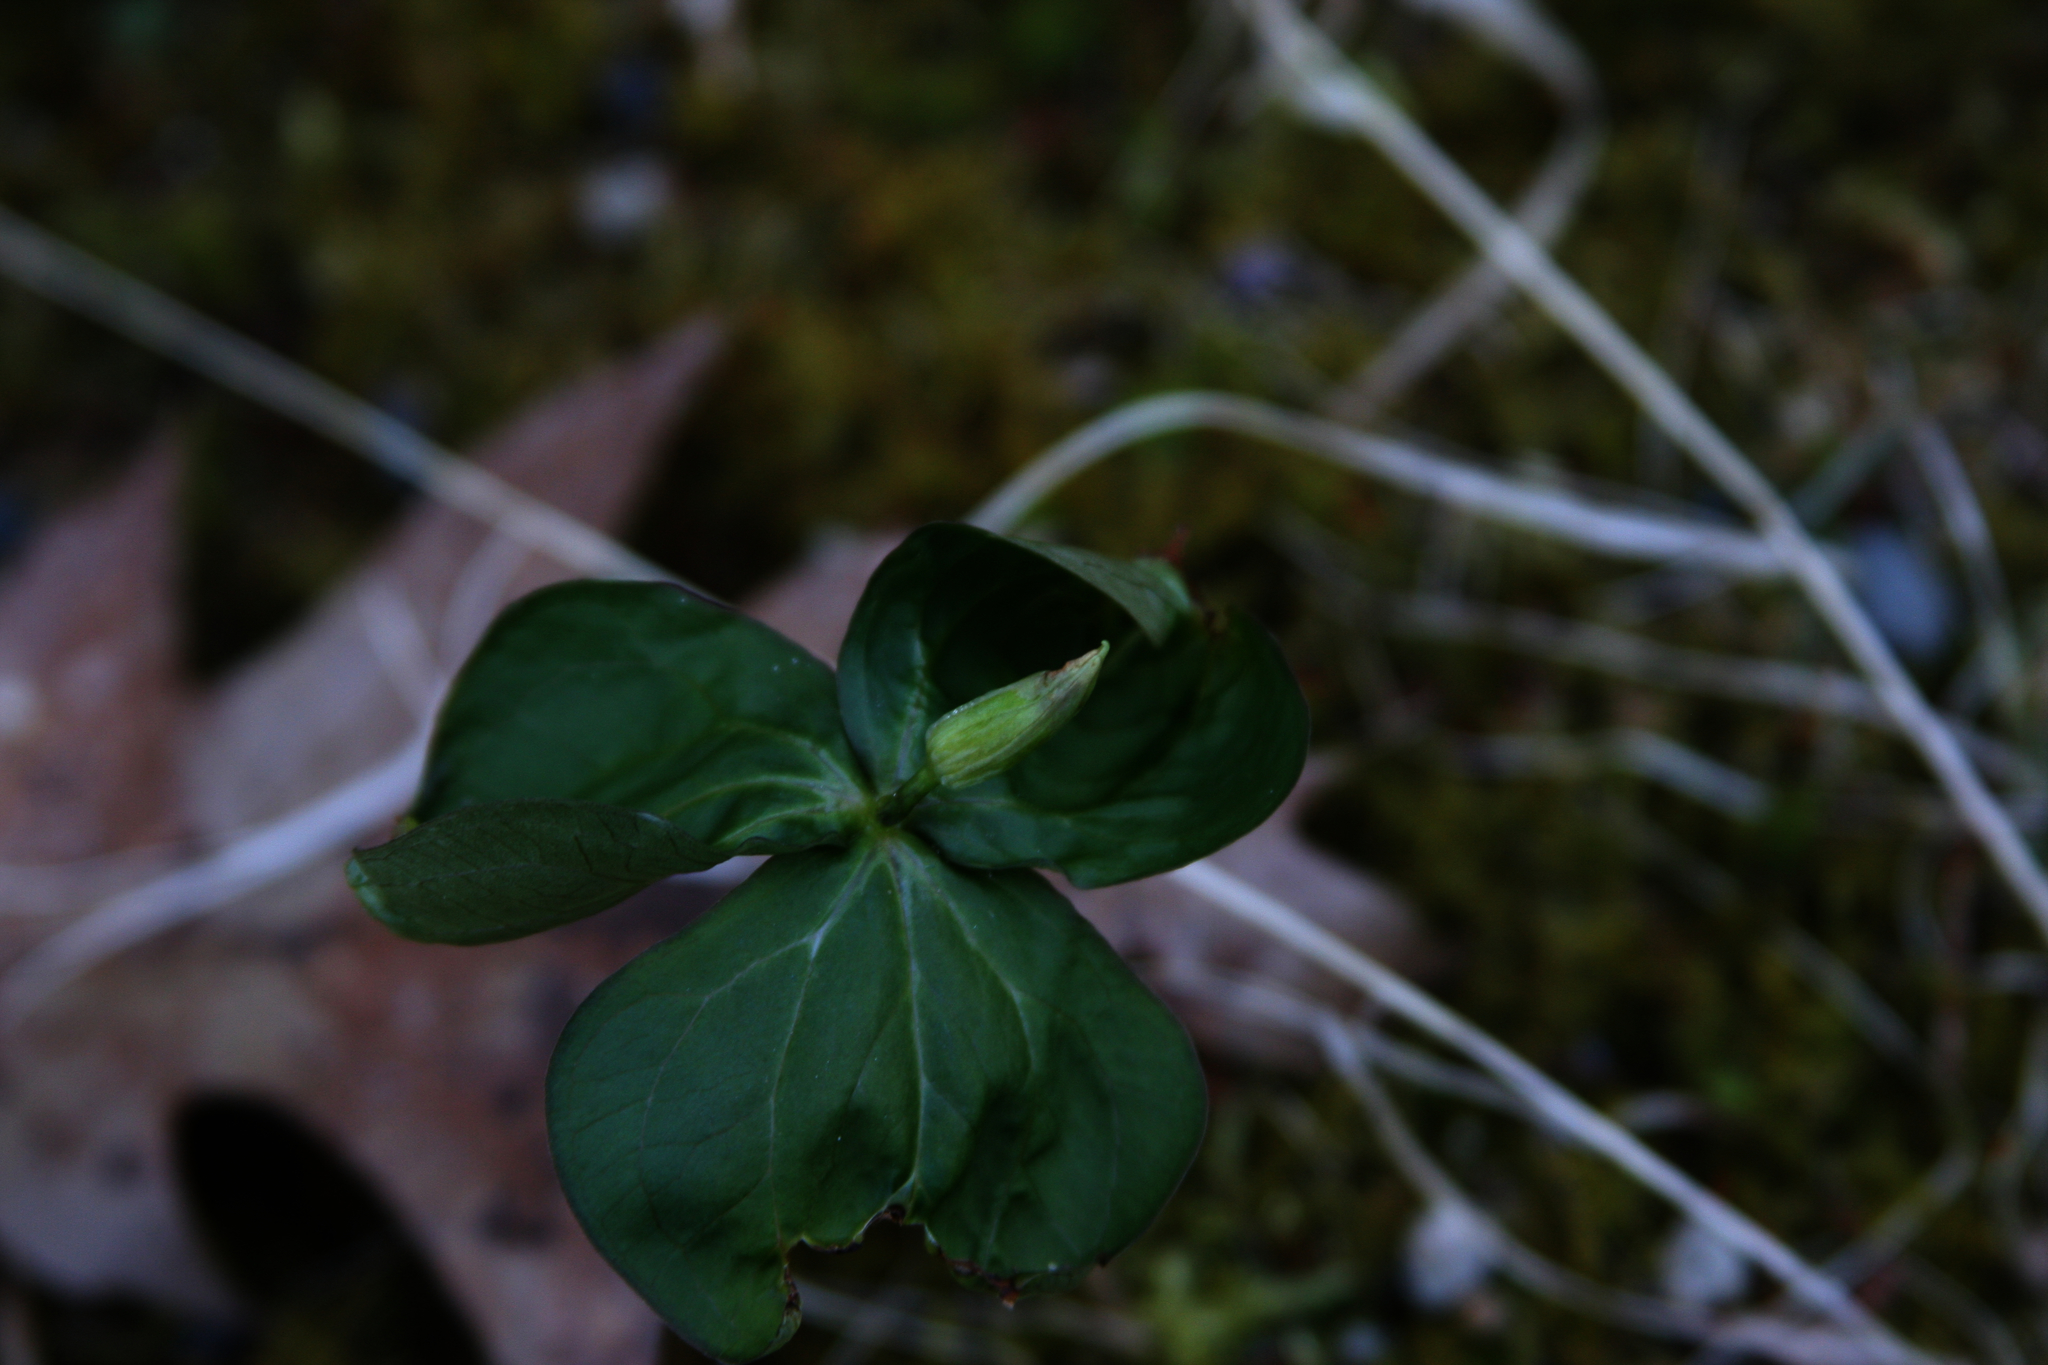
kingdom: Plantae
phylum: Tracheophyta
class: Liliopsida
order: Liliales
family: Melanthiaceae
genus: Trillium
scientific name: Trillium erectum
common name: Purple trillium
